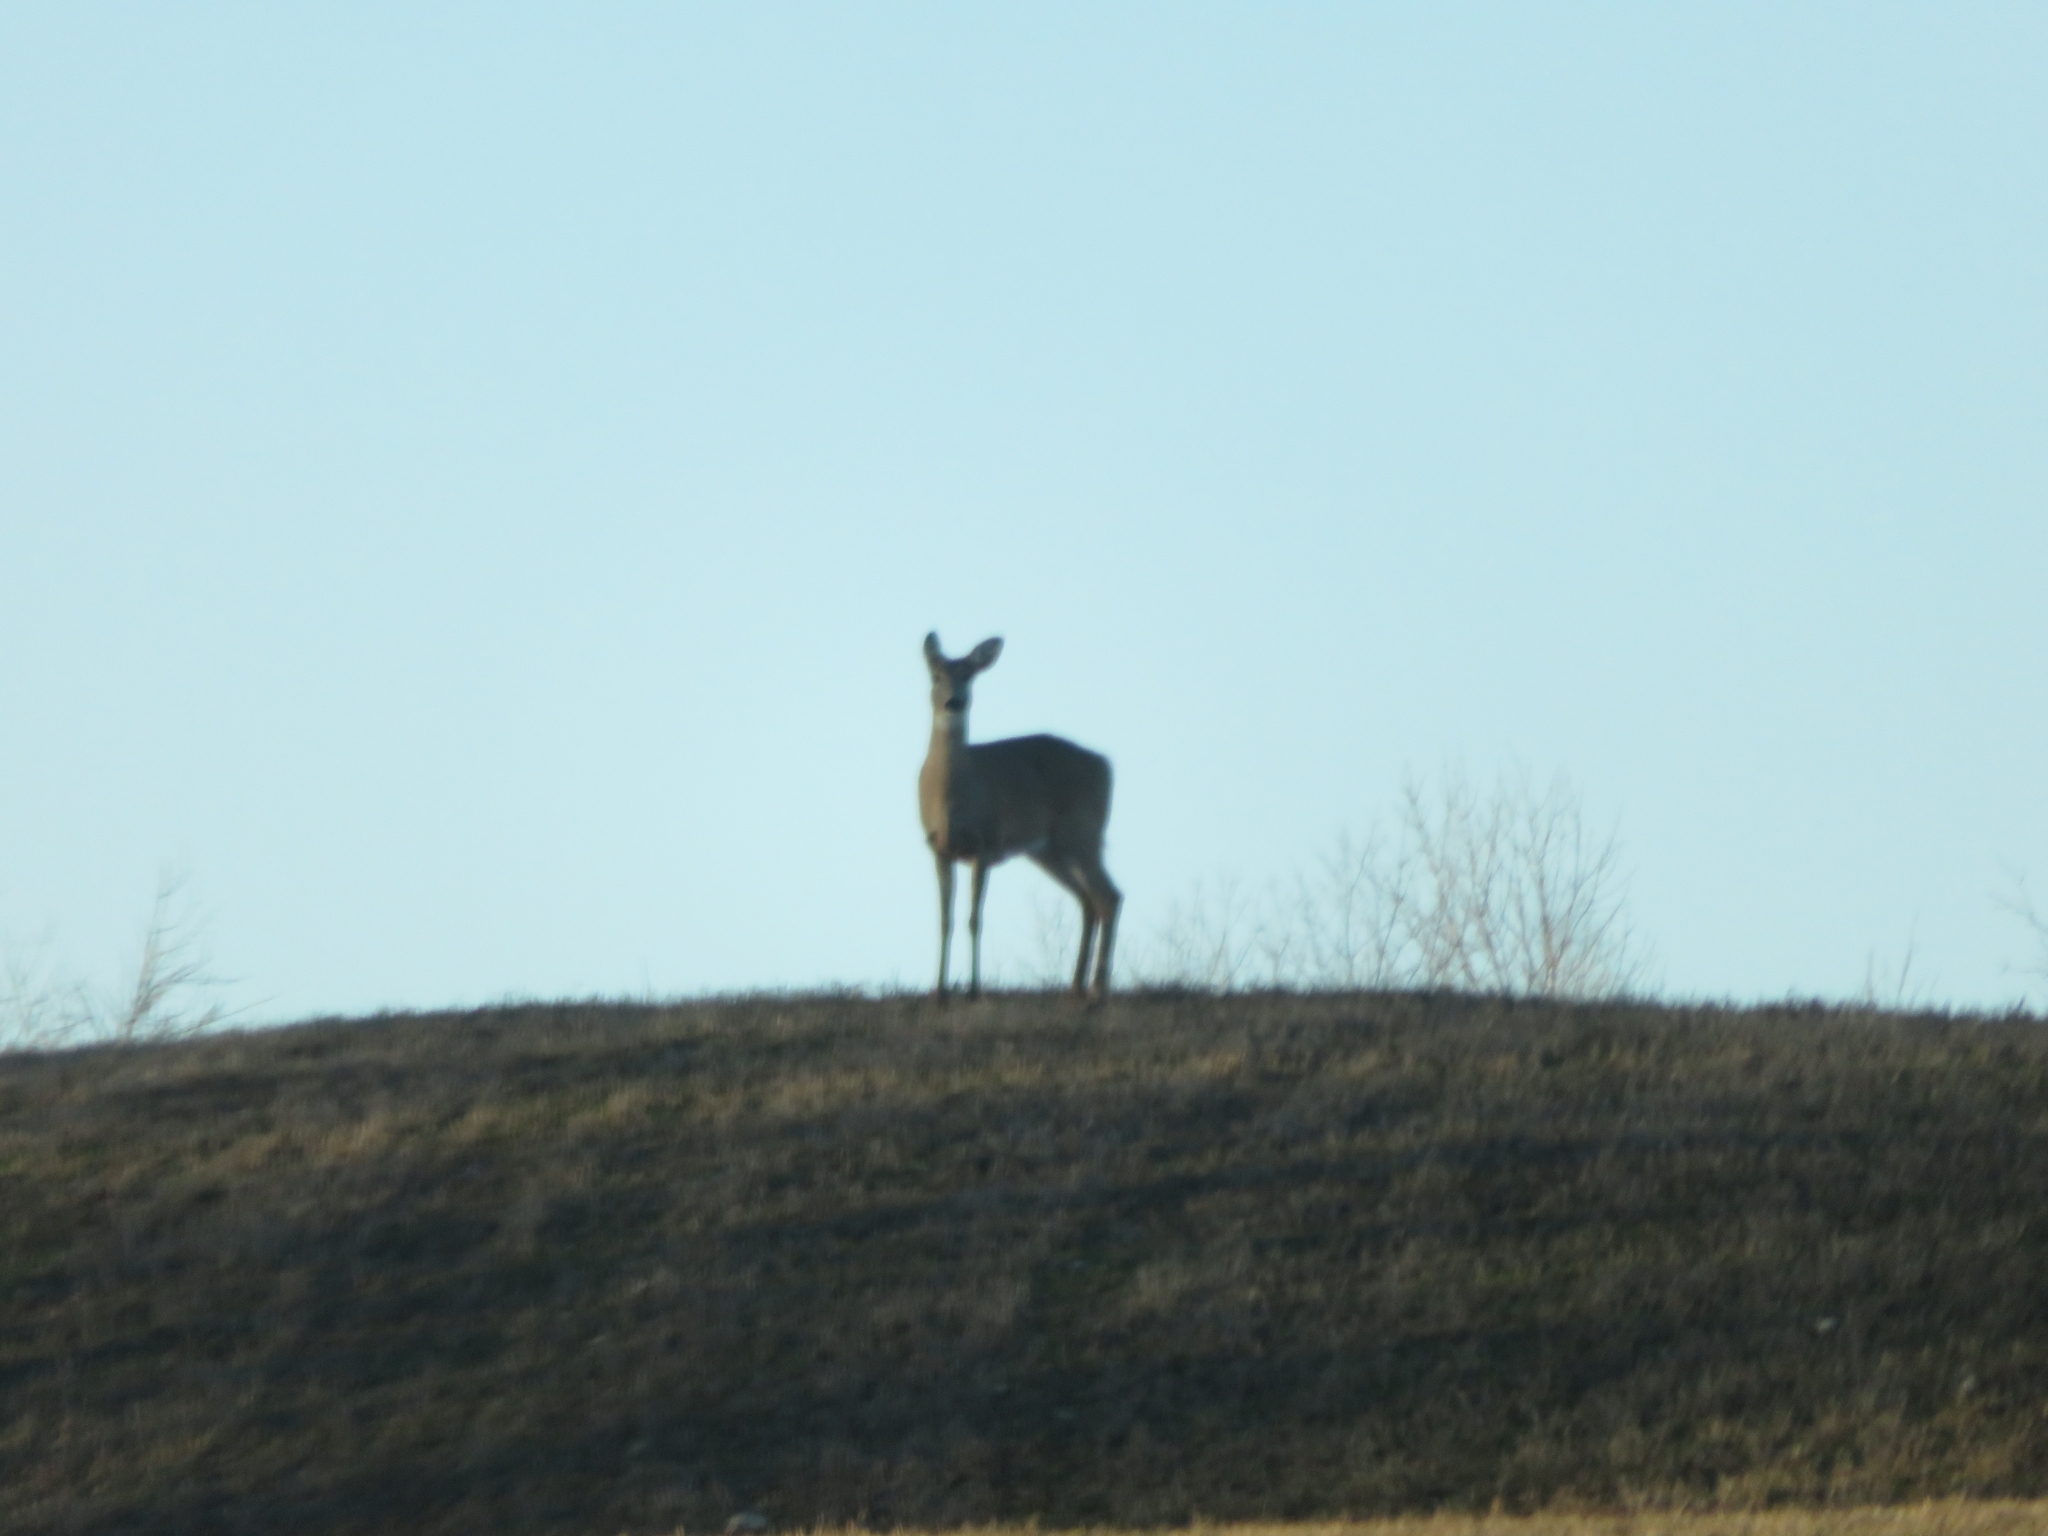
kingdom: Animalia
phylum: Chordata
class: Mammalia
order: Artiodactyla
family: Cervidae
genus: Odocoileus
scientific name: Odocoileus virginianus
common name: White-tailed deer
